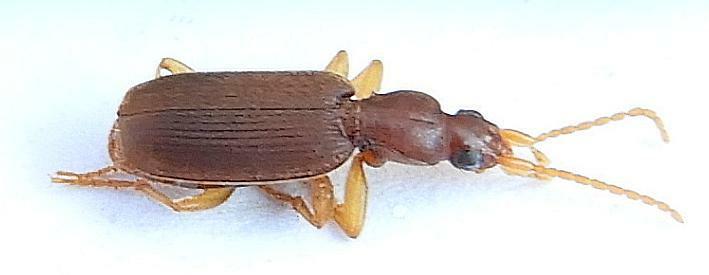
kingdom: Animalia
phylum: Arthropoda
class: Insecta
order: Coleoptera
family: Carabidae
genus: Pseudaptinus
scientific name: Pseudaptinus cubanus
